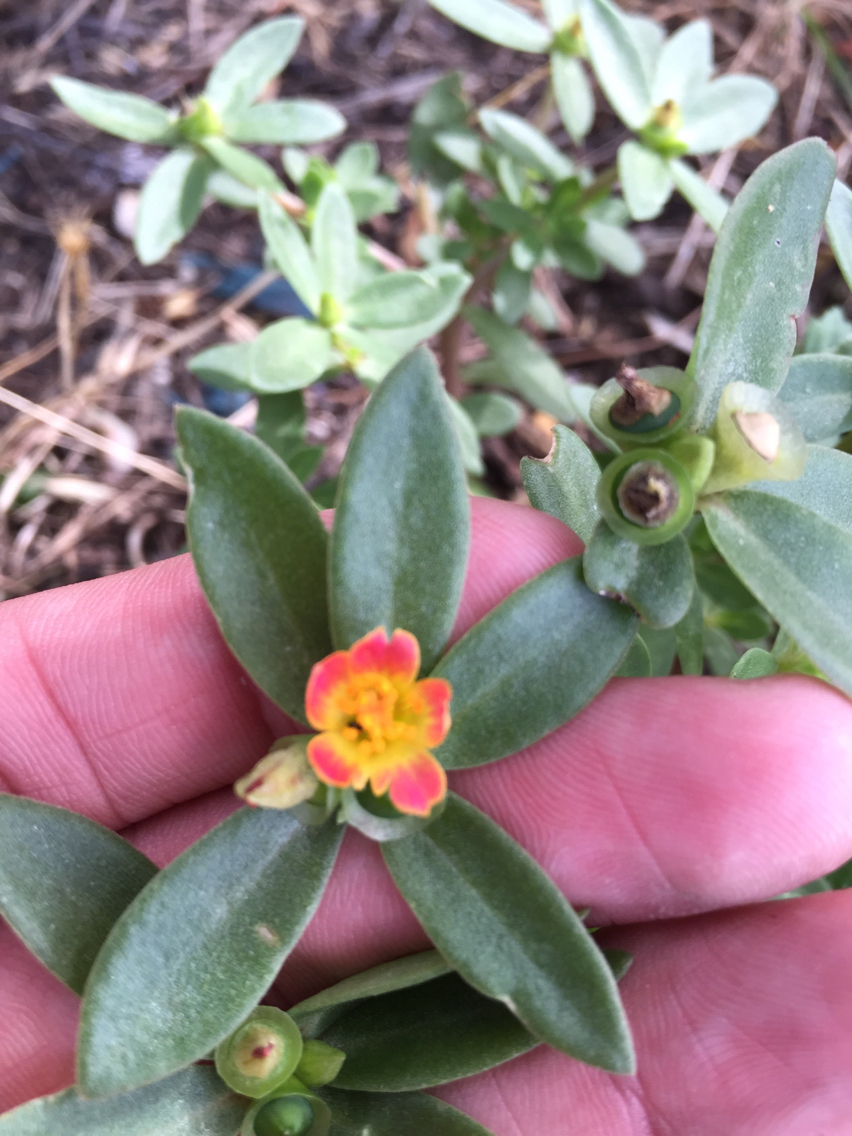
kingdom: Plantae
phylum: Tracheophyta
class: Magnoliopsida
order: Caryophyllales
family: Portulacaceae
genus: Portulaca
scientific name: Portulaca umbraticola
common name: Wingpod purslane
